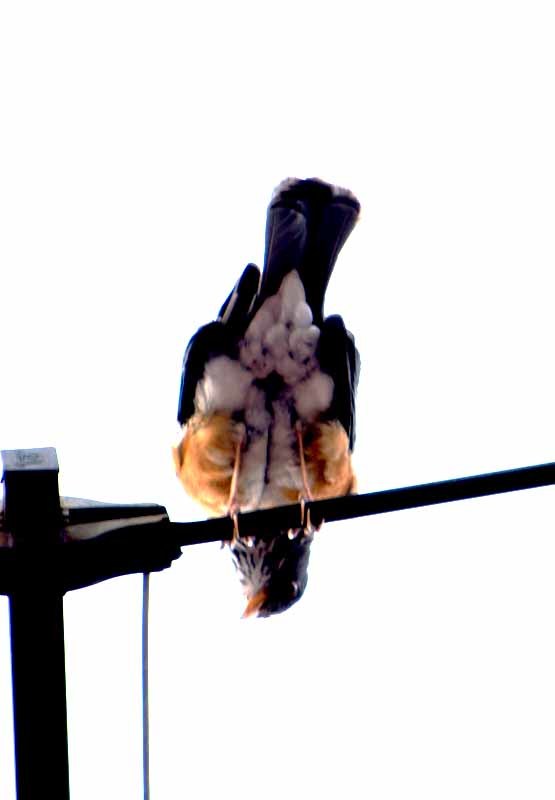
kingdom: Animalia
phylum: Chordata
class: Aves
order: Passeriformes
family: Turdidae
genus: Turdus
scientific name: Turdus rufopalliatus
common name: Rufous-backed robin
